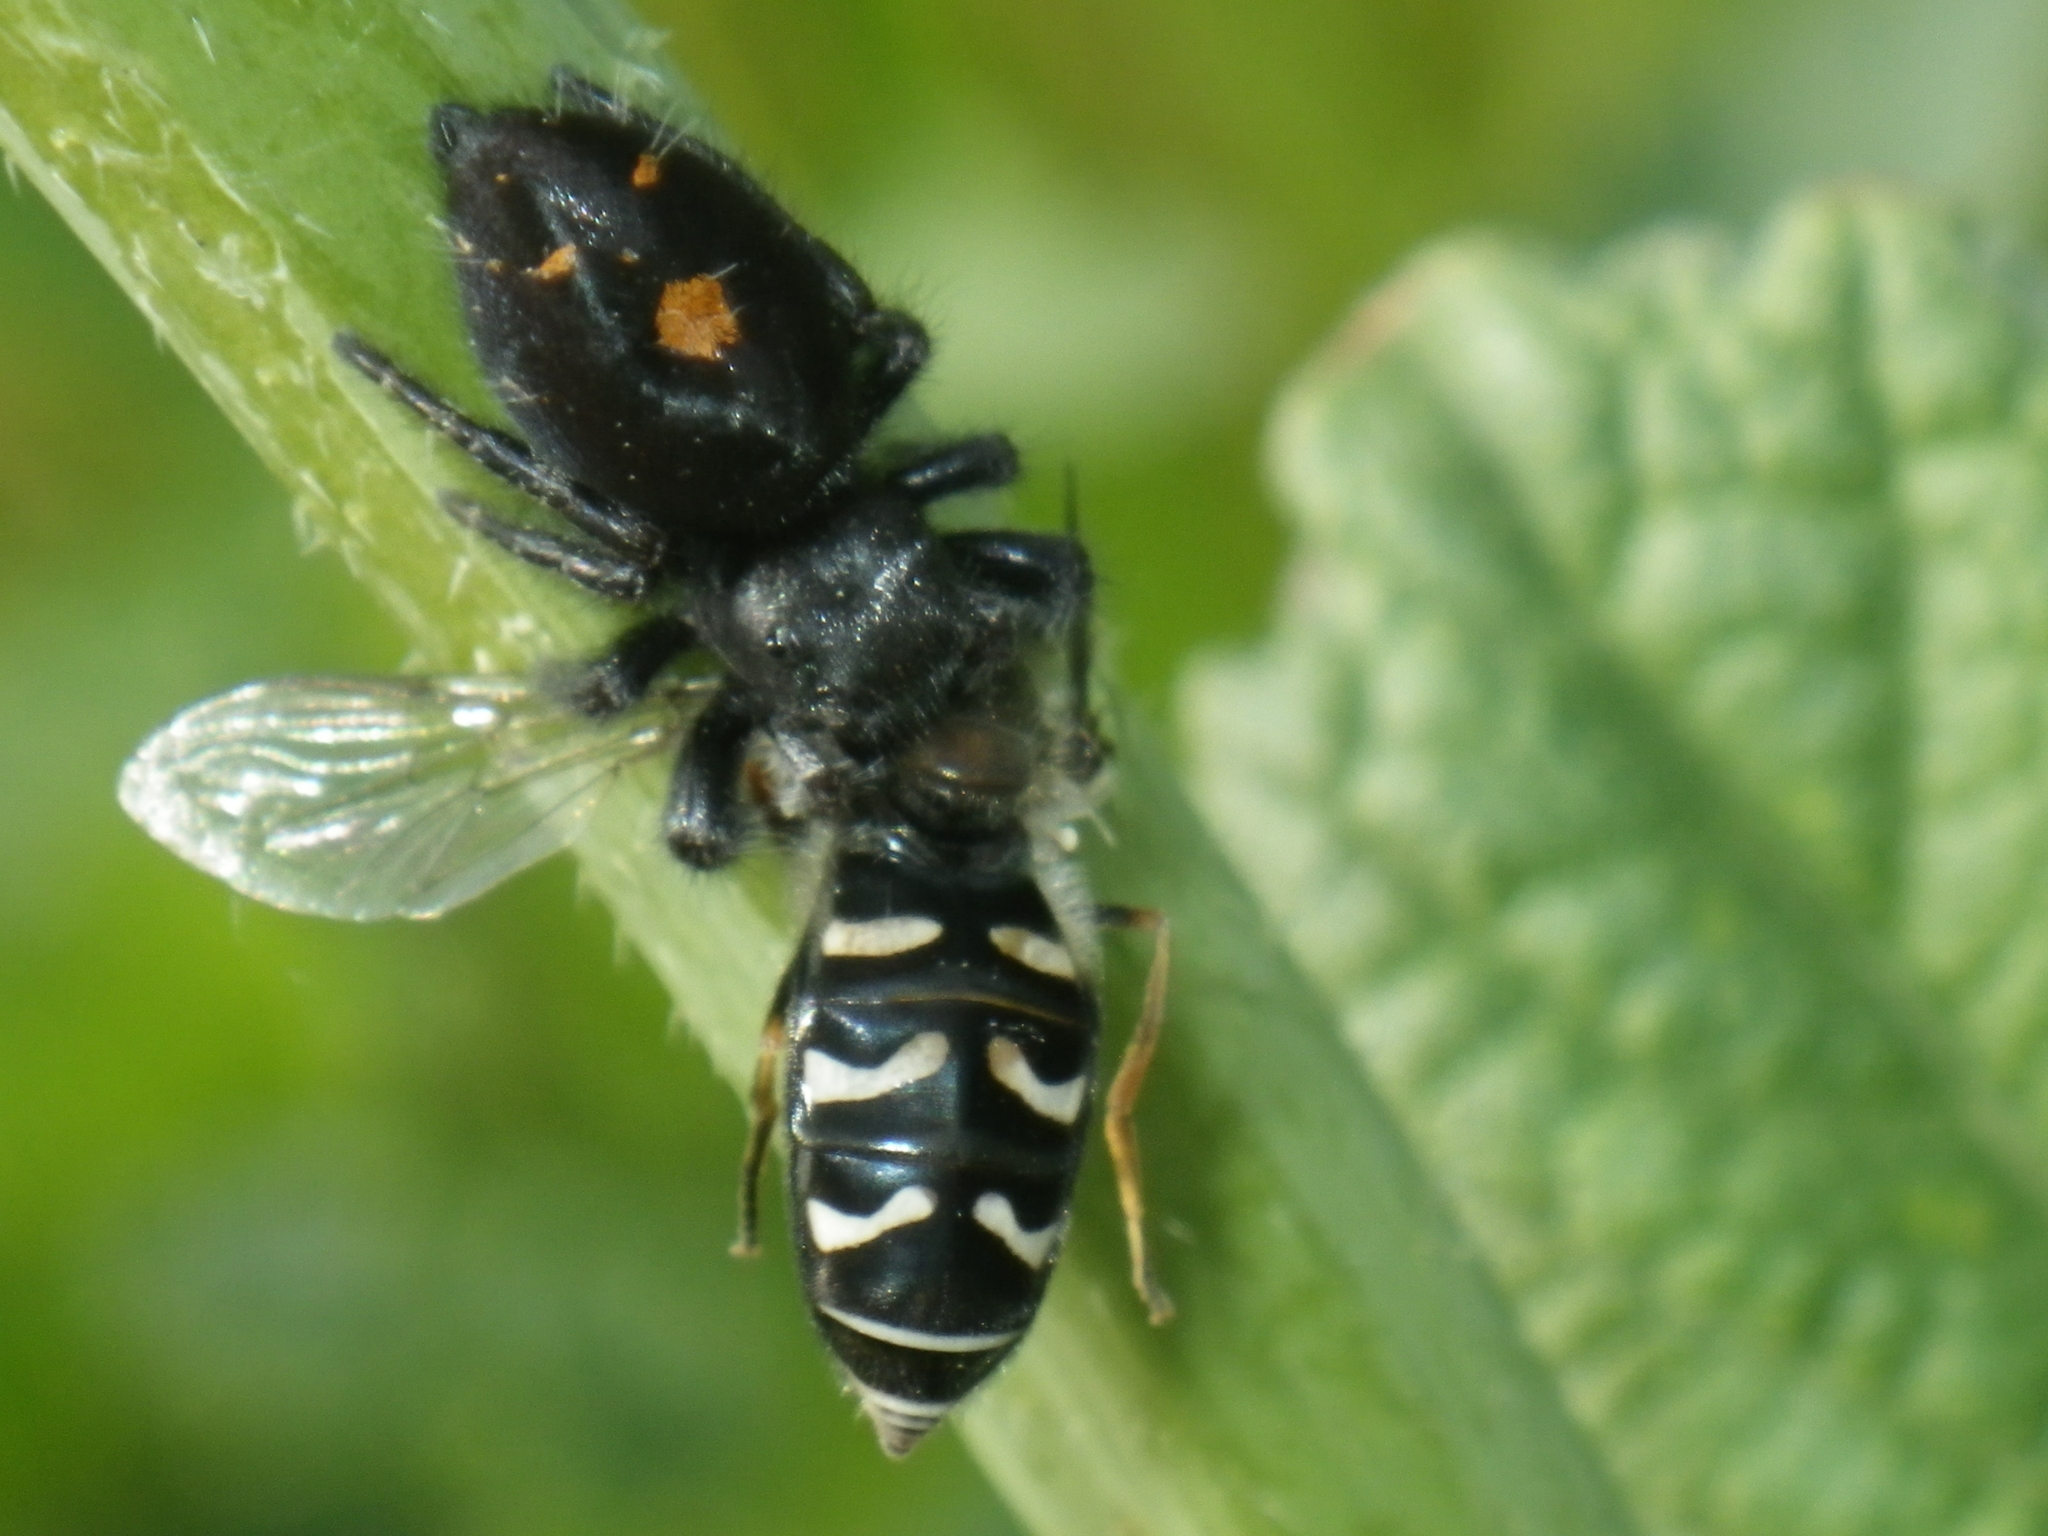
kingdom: Animalia
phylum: Arthropoda
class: Insecta
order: Diptera
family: Syrphidae
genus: Scaeva
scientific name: Scaeva affinis
